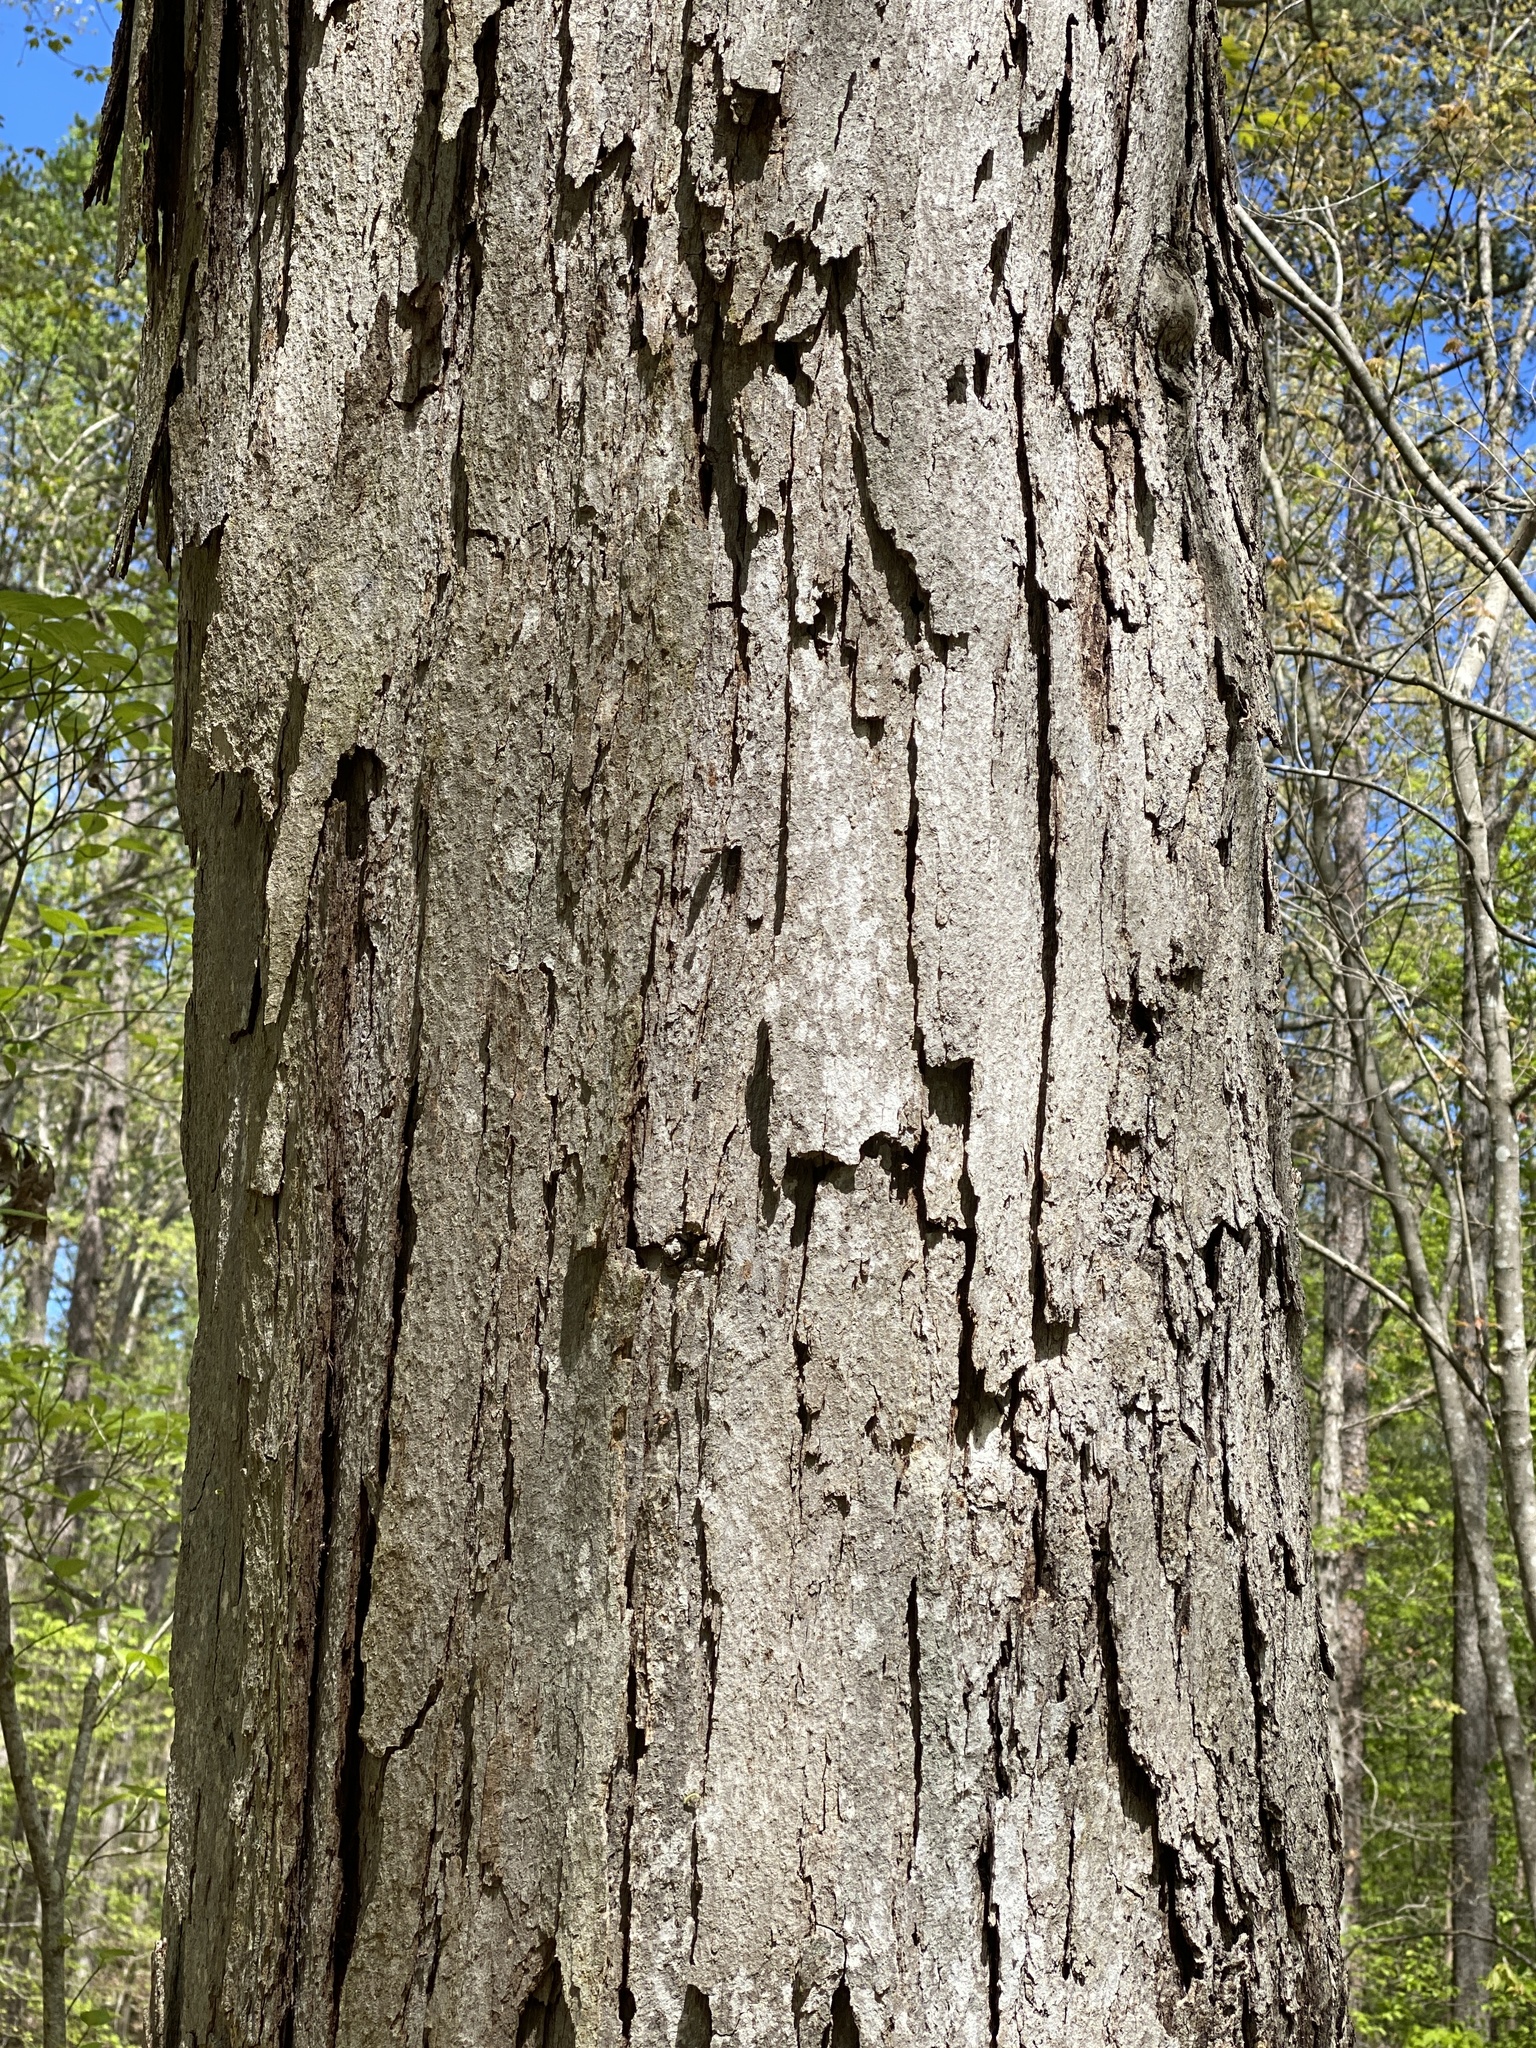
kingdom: Plantae
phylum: Tracheophyta
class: Magnoliopsida
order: Fagales
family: Fagaceae
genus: Quercus
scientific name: Quercus alba
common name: White oak
